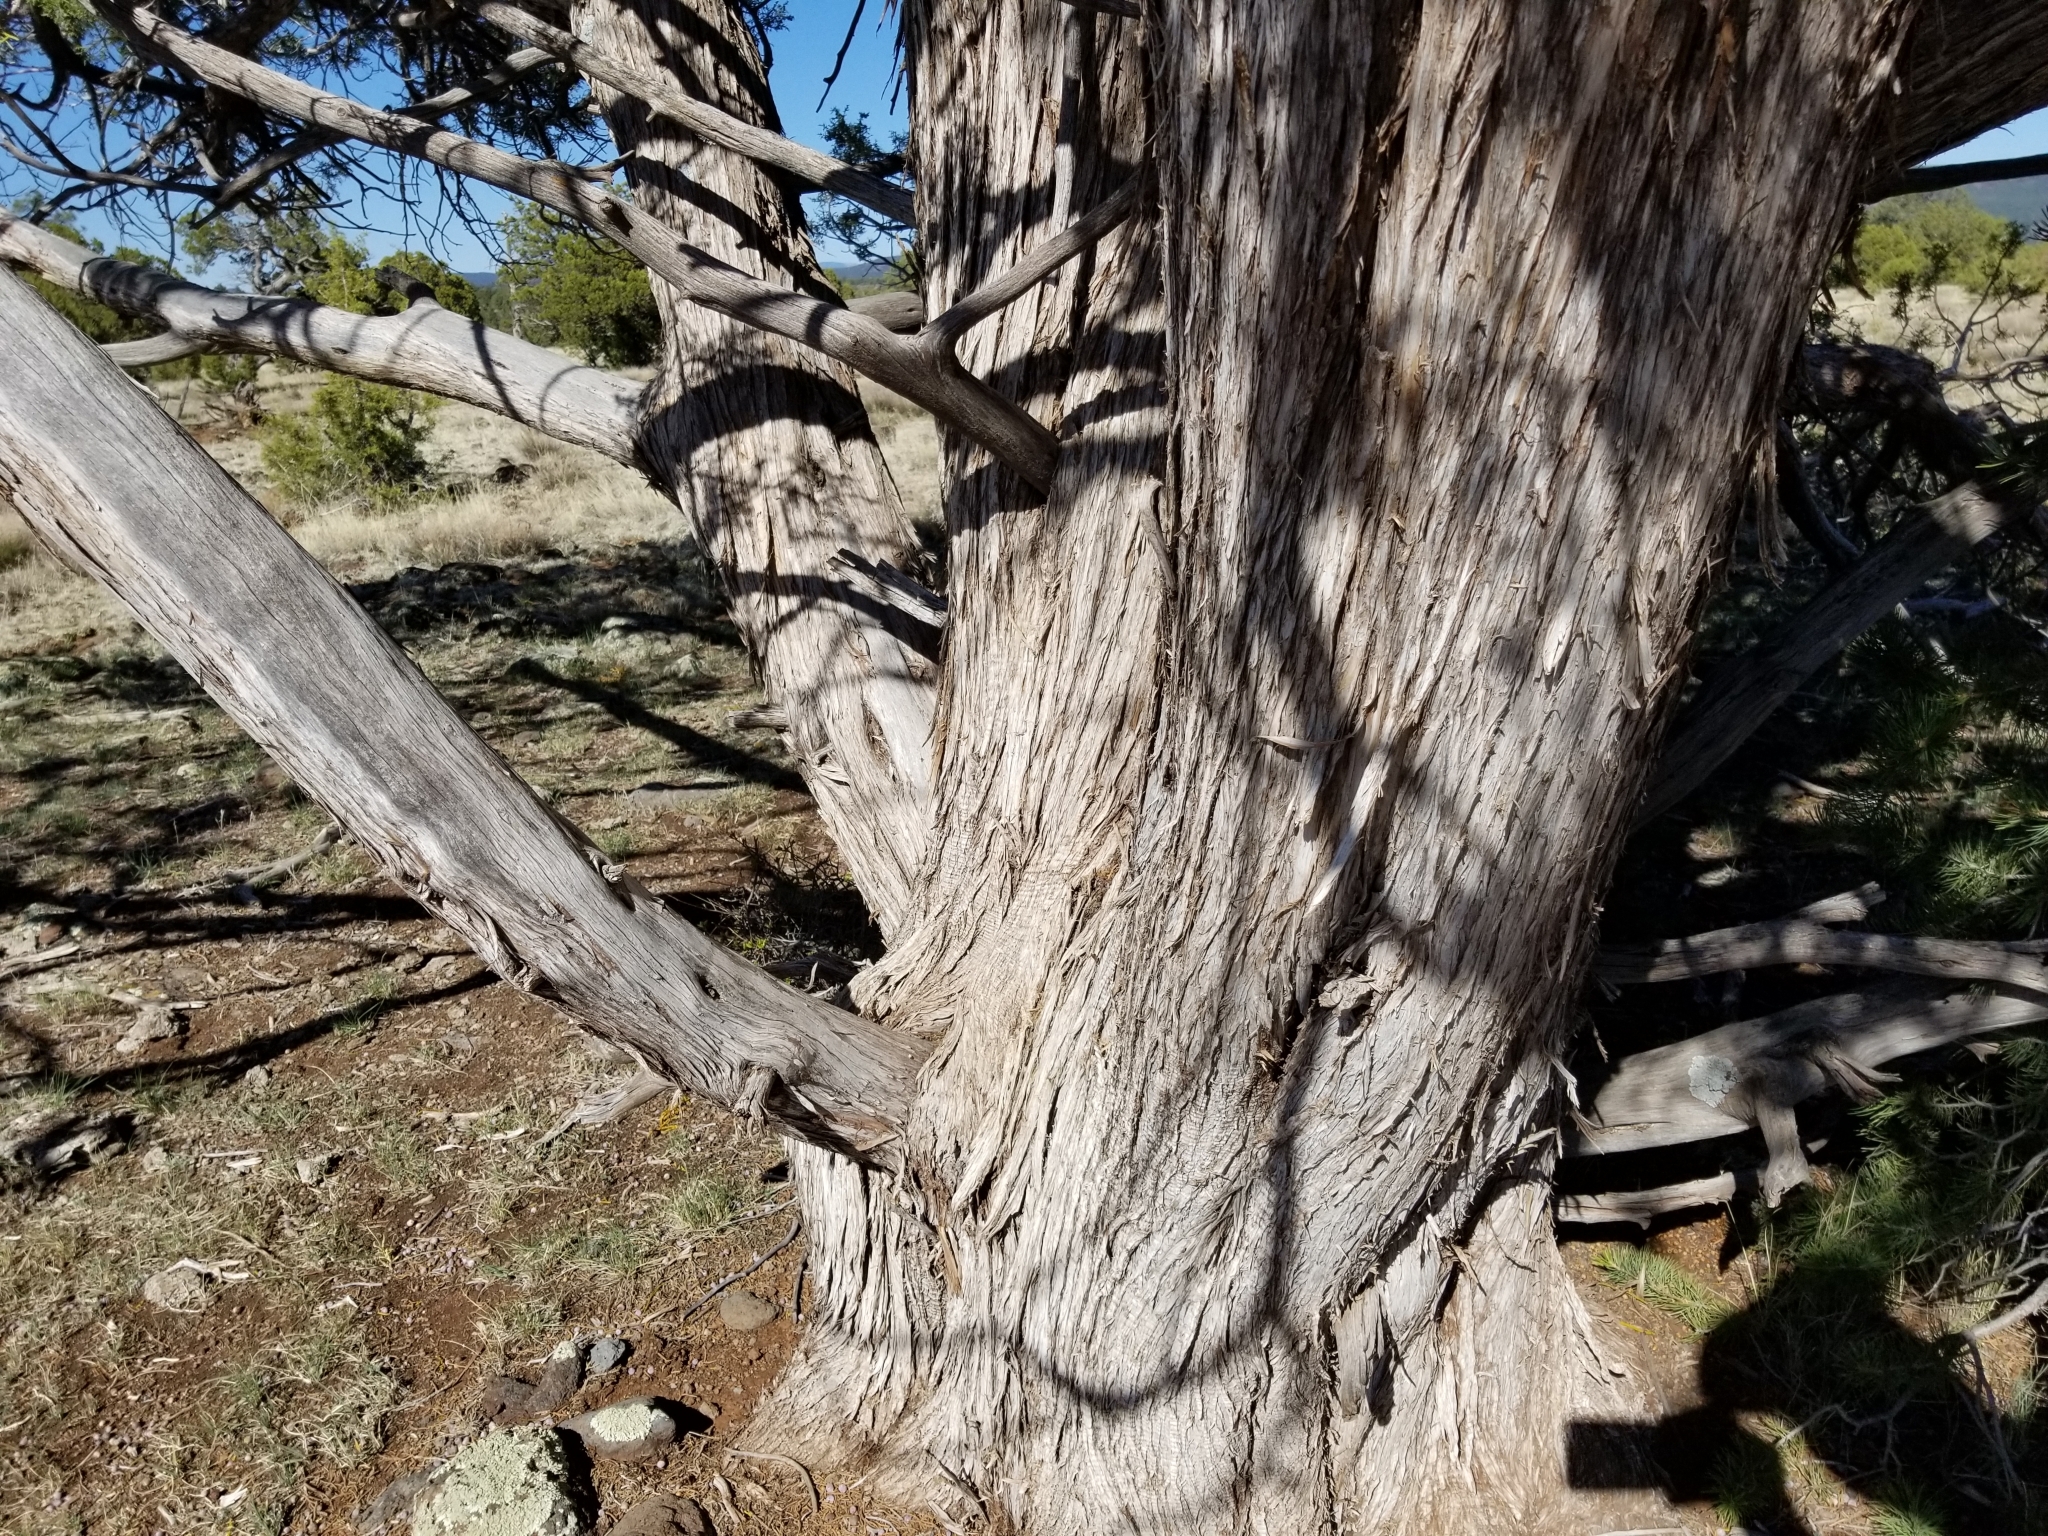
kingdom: Plantae
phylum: Tracheophyta
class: Pinopsida
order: Pinales
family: Cupressaceae
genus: Juniperus
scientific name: Juniperus scopulorum
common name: Rocky mountain juniper
